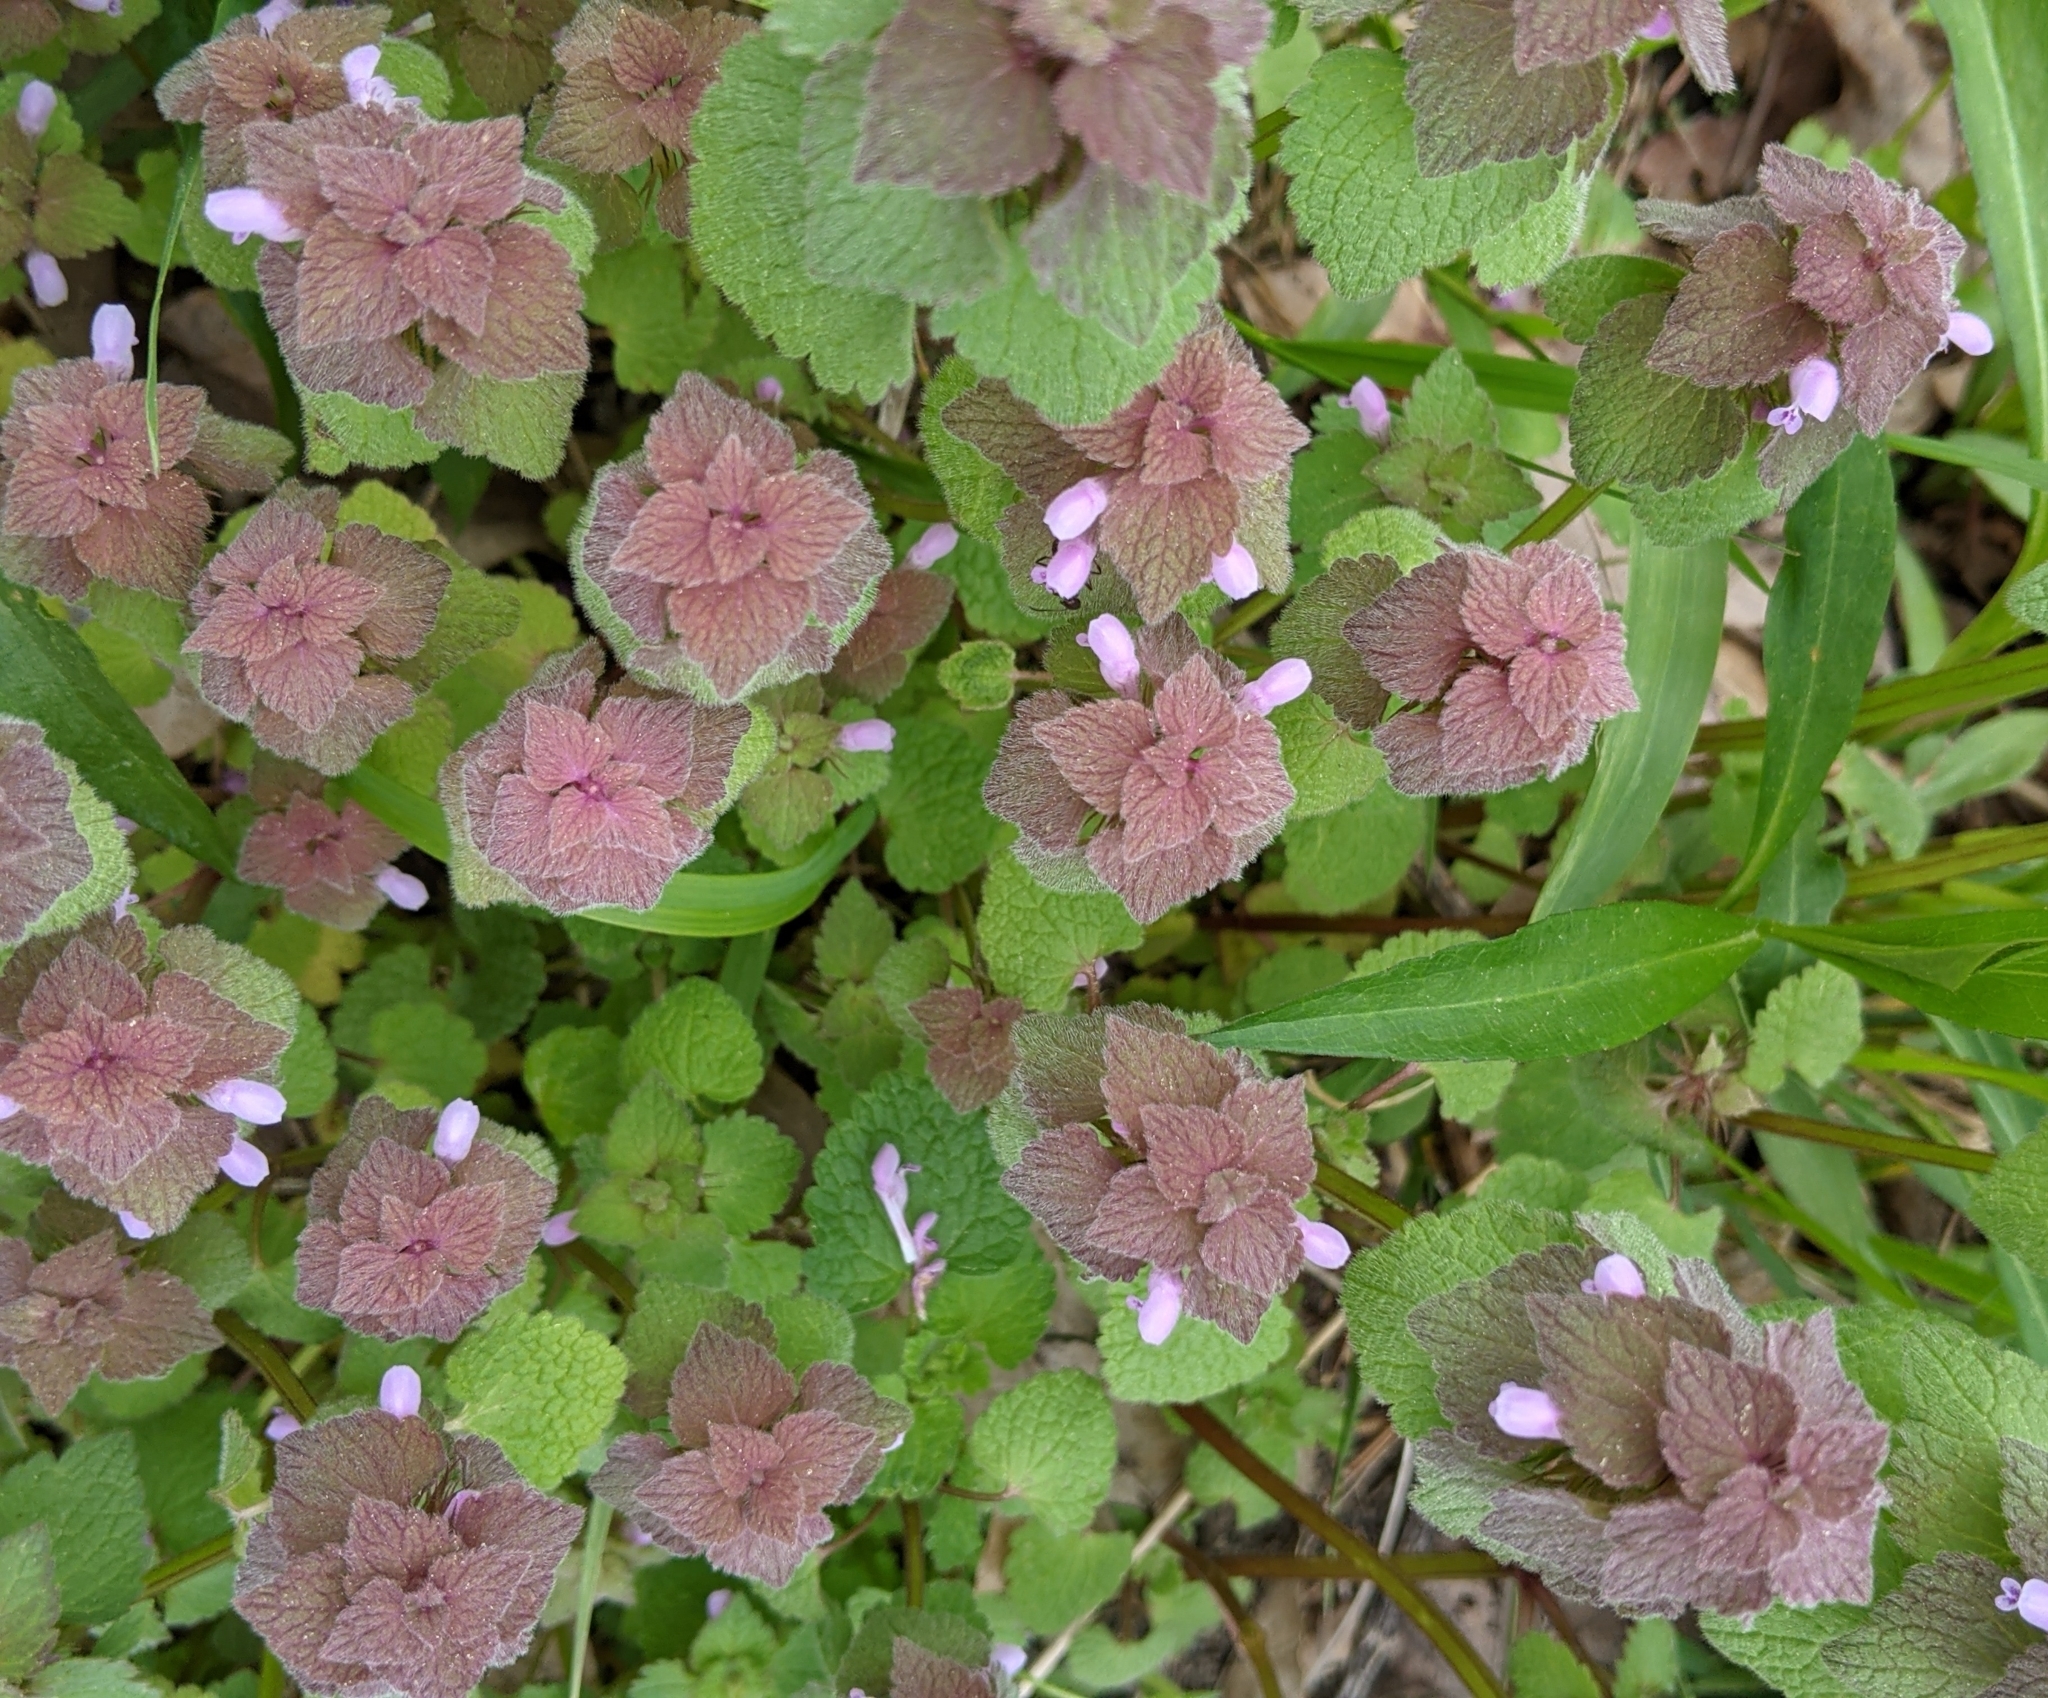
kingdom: Plantae
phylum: Tracheophyta
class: Magnoliopsida
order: Lamiales
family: Lamiaceae
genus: Lamium
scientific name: Lamium purpureum
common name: Red dead-nettle
